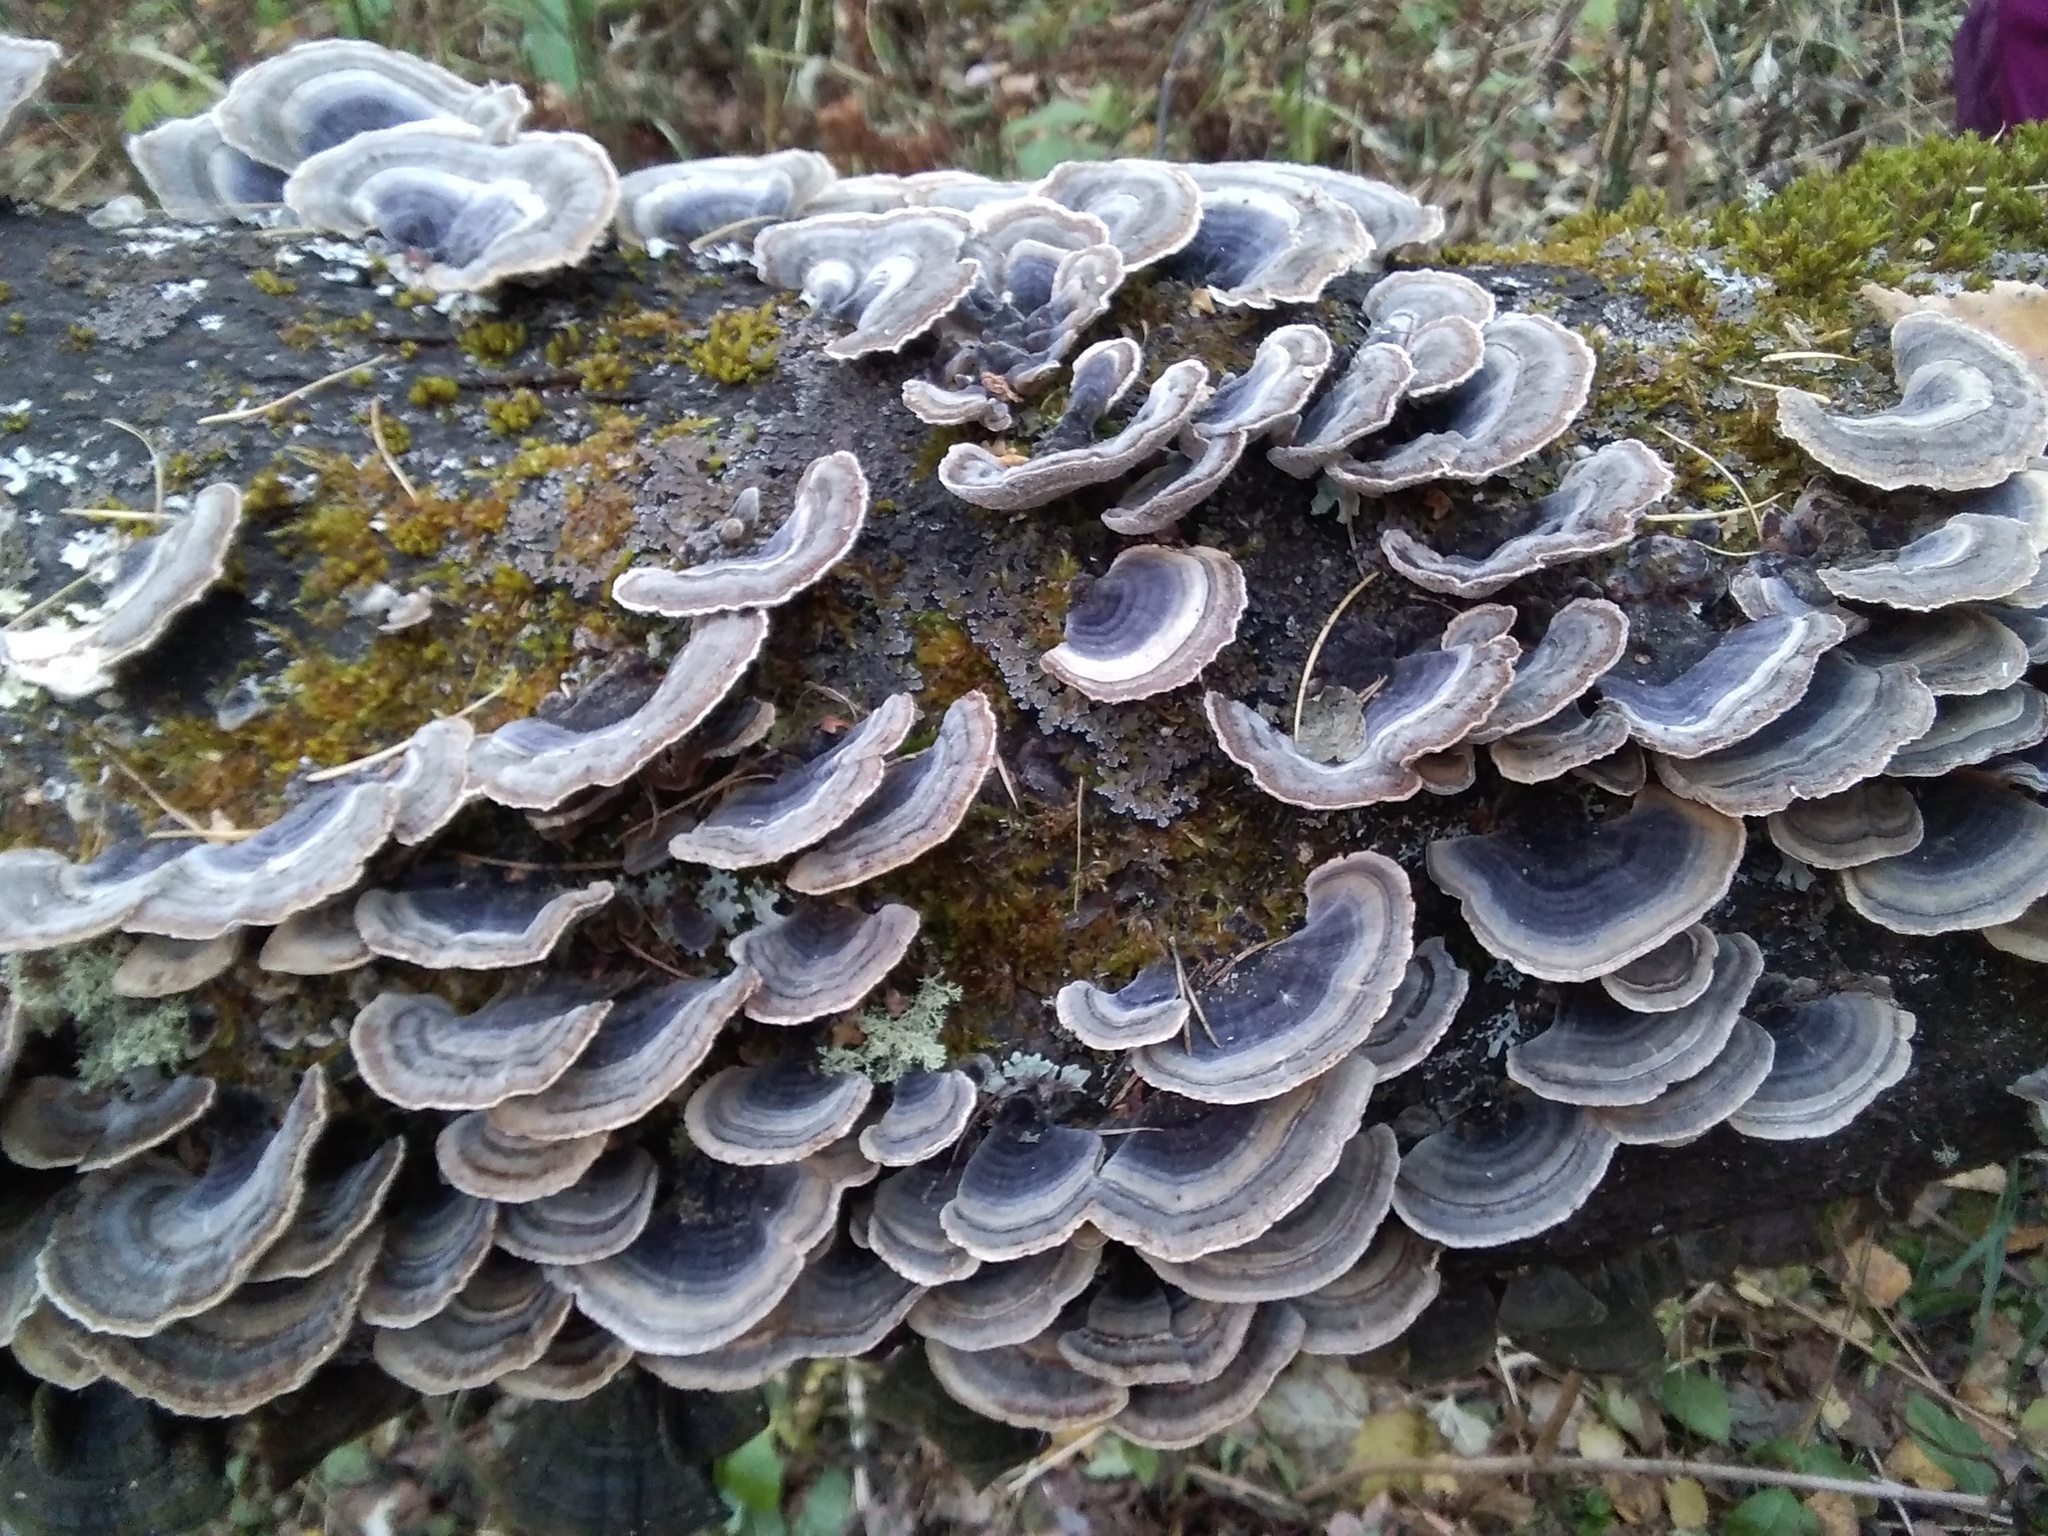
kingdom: Fungi
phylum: Basidiomycota
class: Agaricomycetes
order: Polyporales
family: Polyporaceae
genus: Trametes
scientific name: Trametes versicolor
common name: Turkeytail
